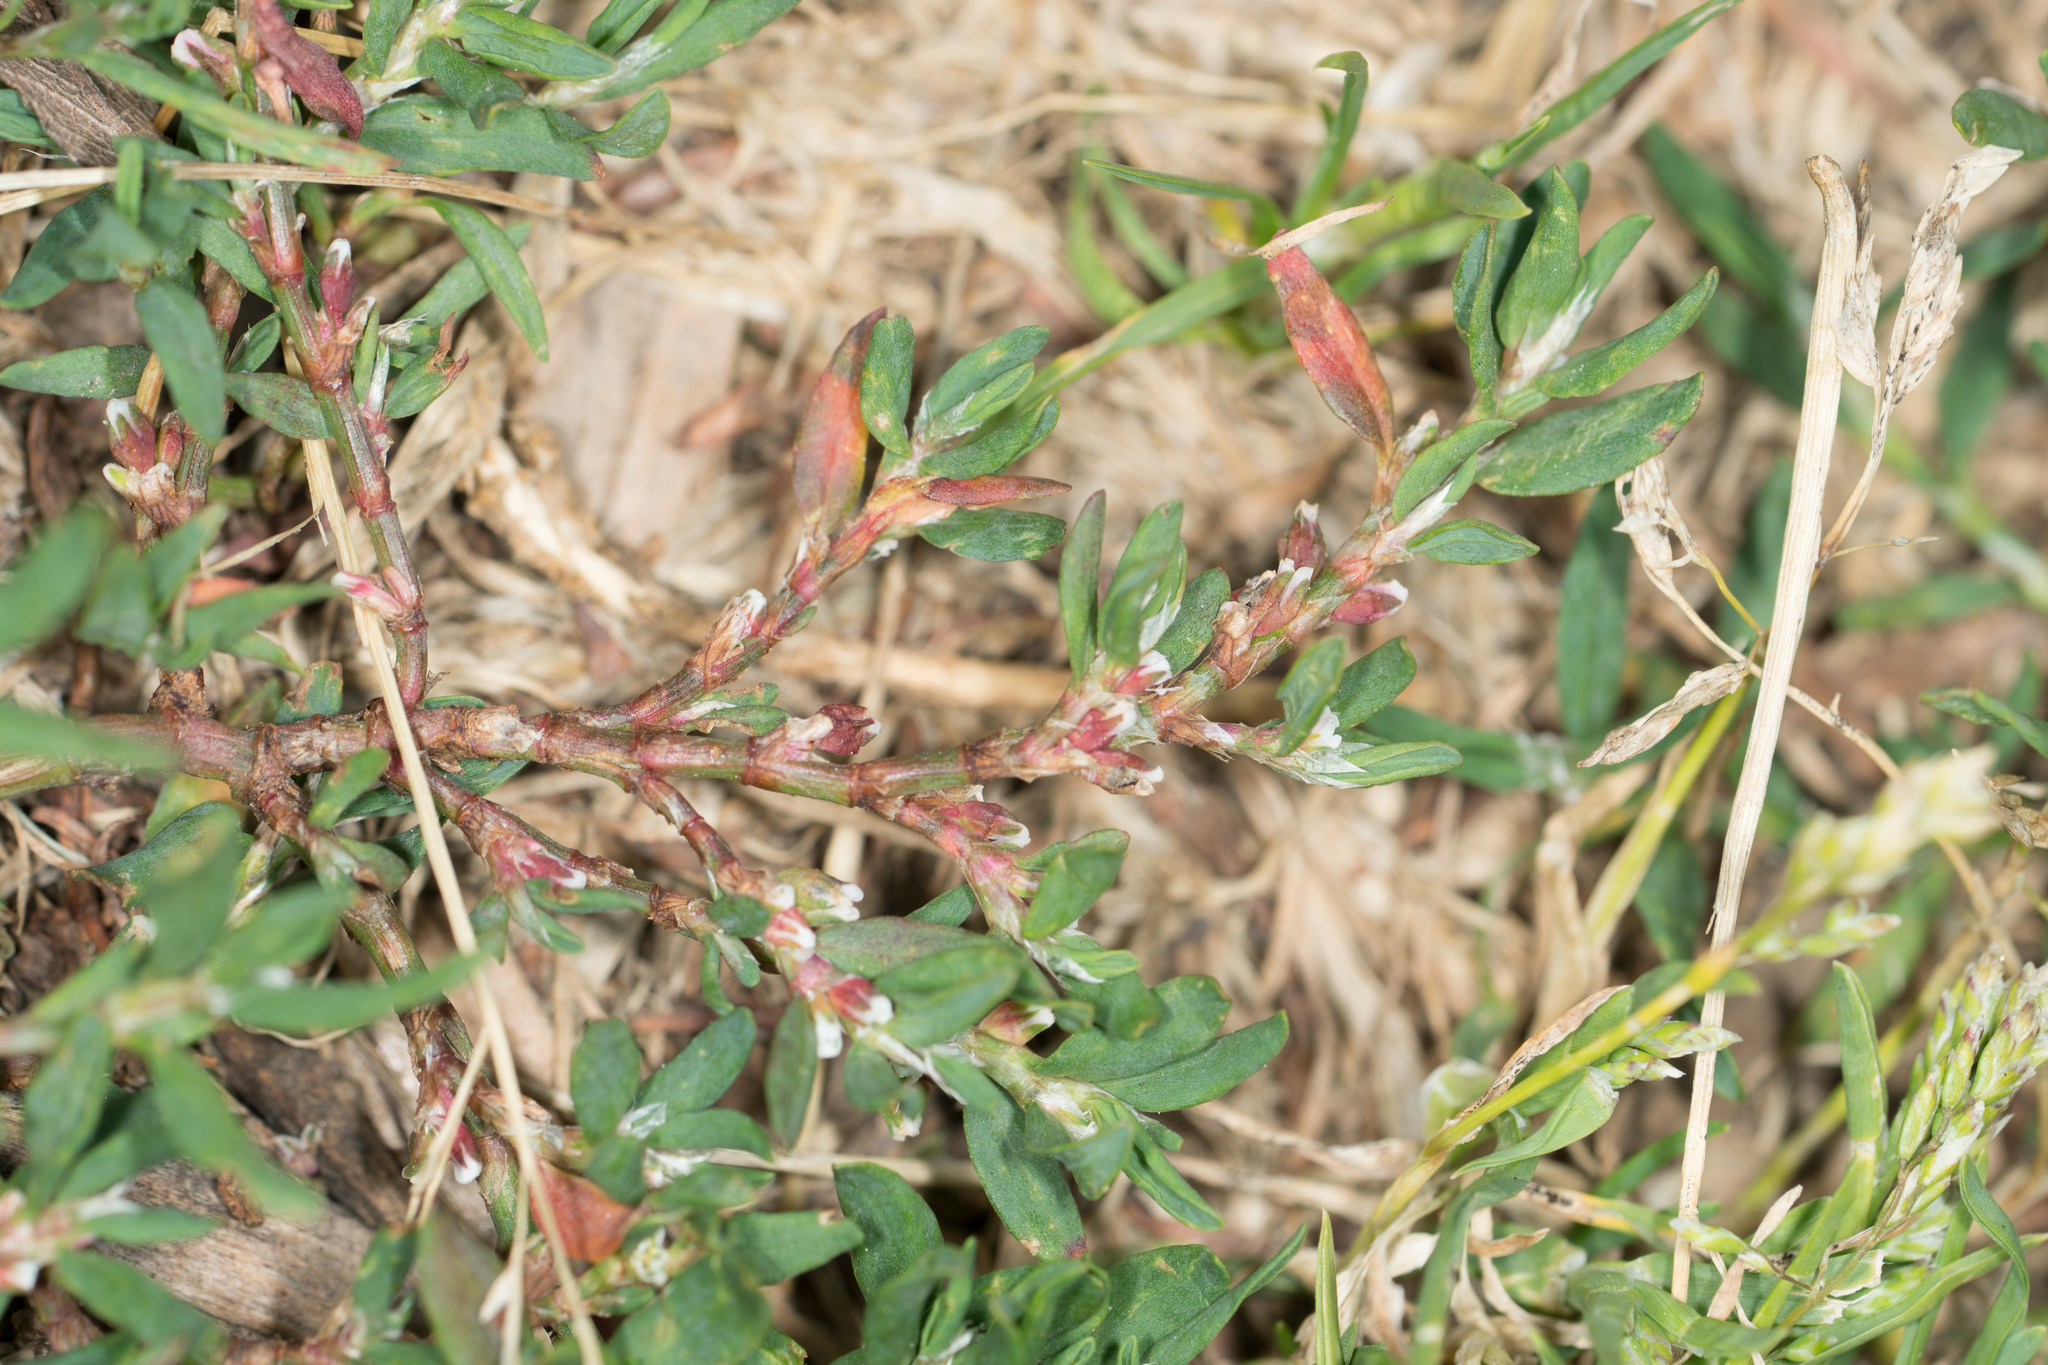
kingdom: Plantae
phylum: Tracheophyta
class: Magnoliopsida
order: Caryophyllales
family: Polygonaceae
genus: Polygonum
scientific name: Polygonum aviculare
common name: Prostrate knotweed
